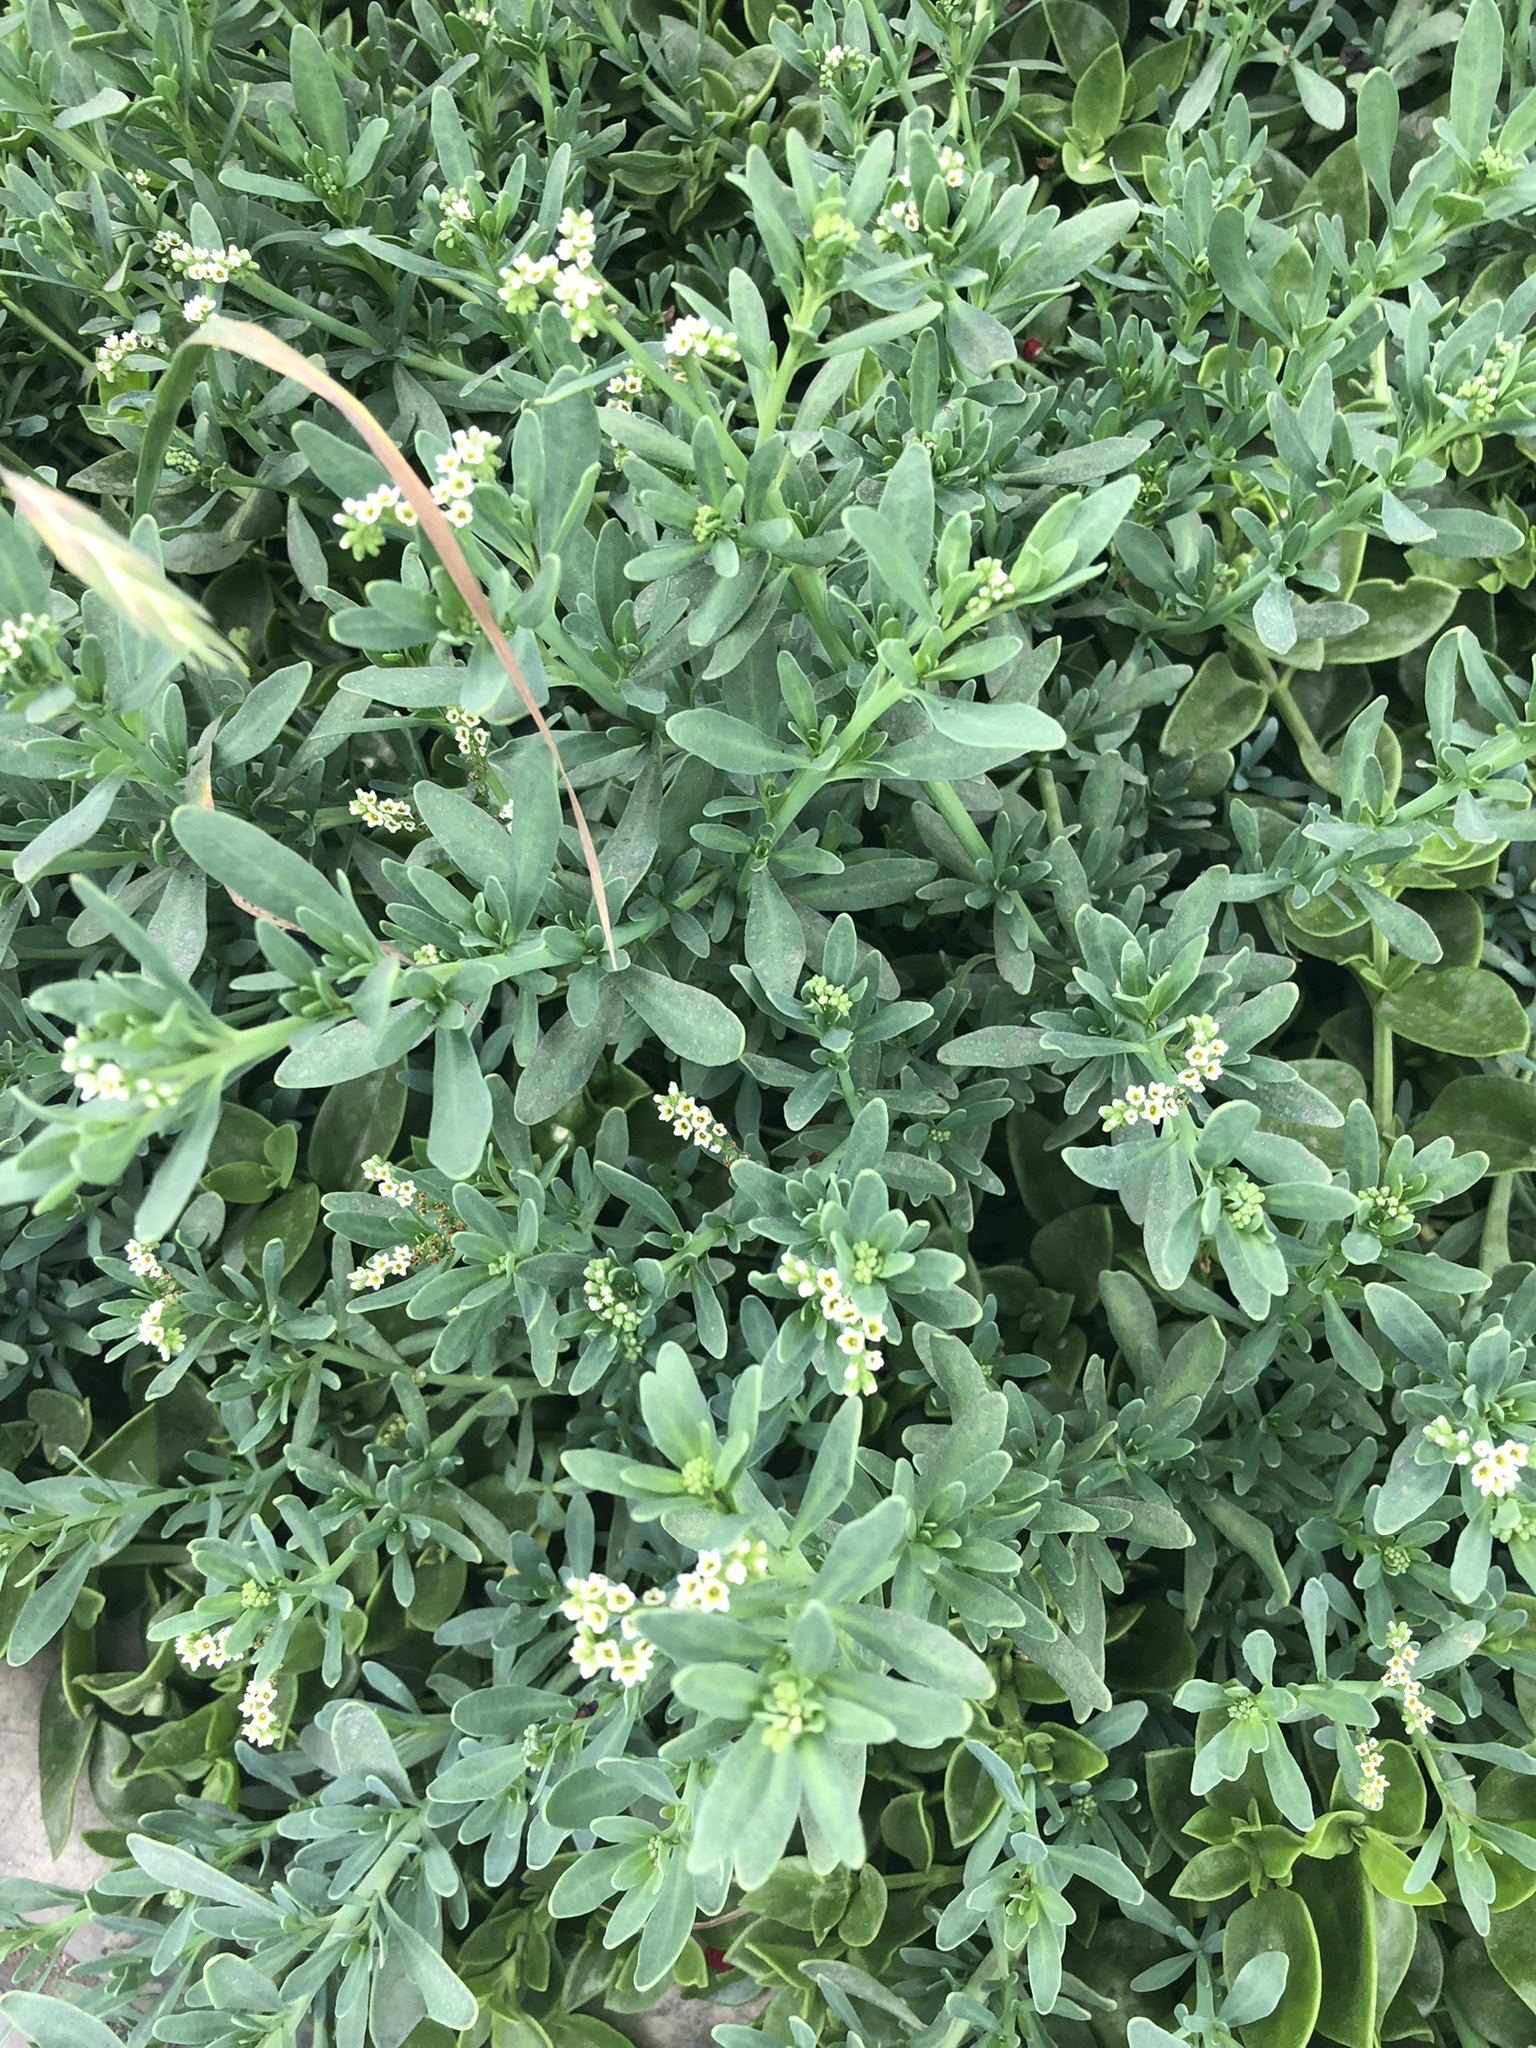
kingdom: Plantae
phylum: Tracheophyta
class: Magnoliopsida
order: Boraginales
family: Heliotropiaceae
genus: Heliotropium
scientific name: Heliotropium curassavicum
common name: Seaside heliotrope
